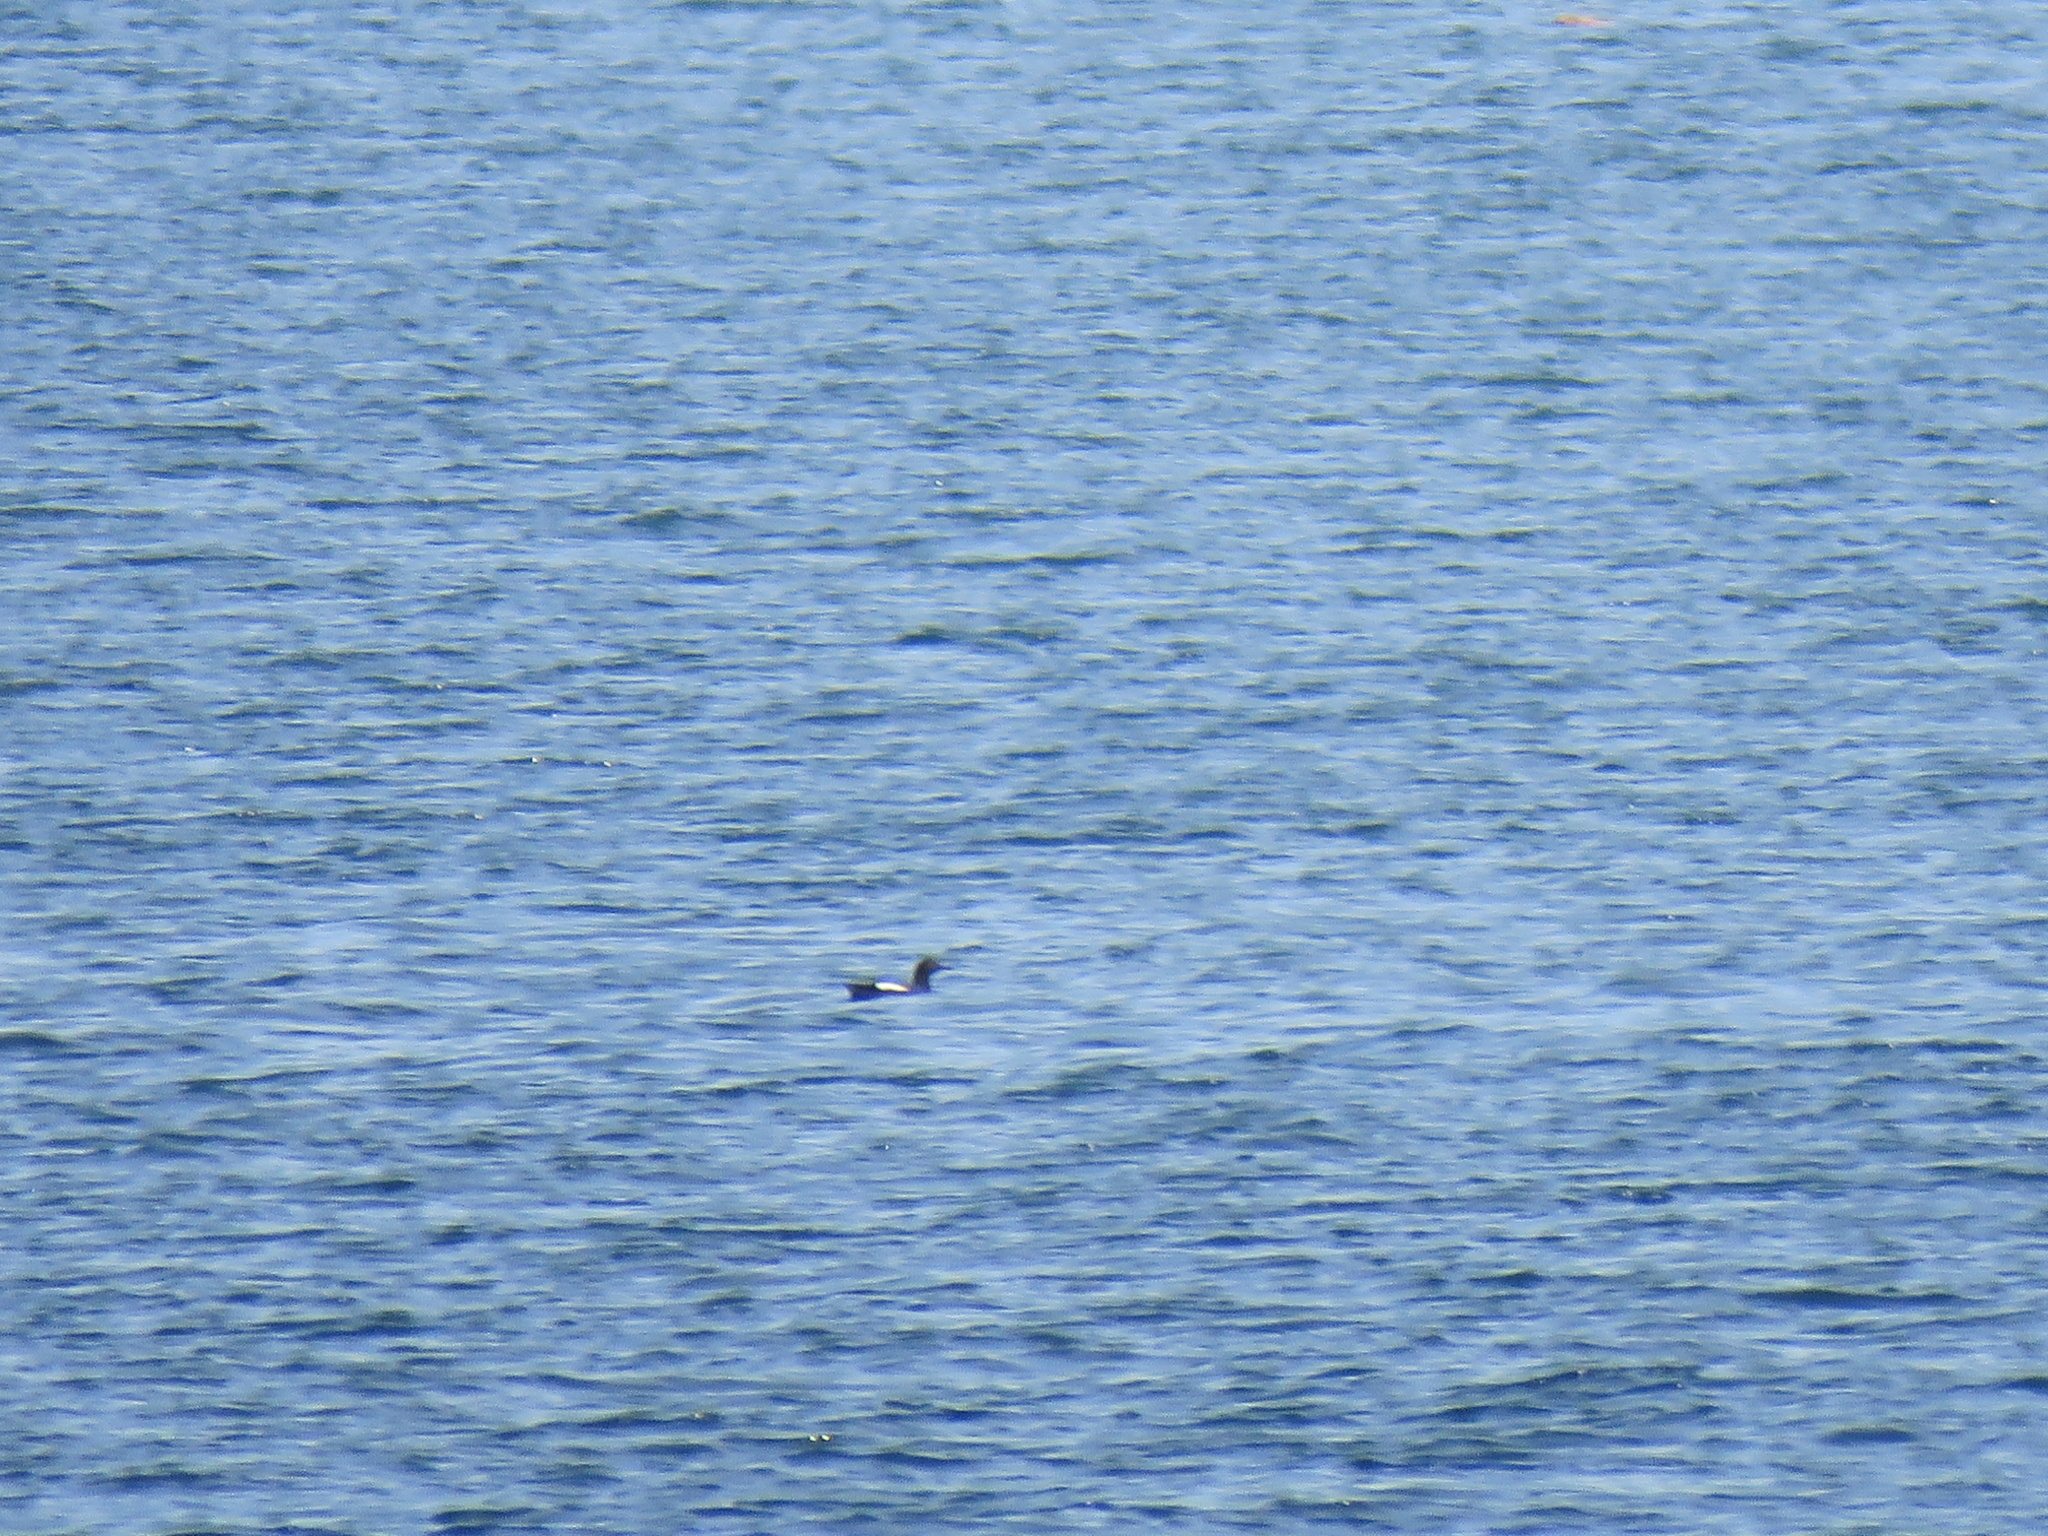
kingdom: Animalia
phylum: Chordata
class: Aves
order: Charadriiformes
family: Alcidae
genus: Cepphus
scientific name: Cepphus columba
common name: Pigeon guillemot
